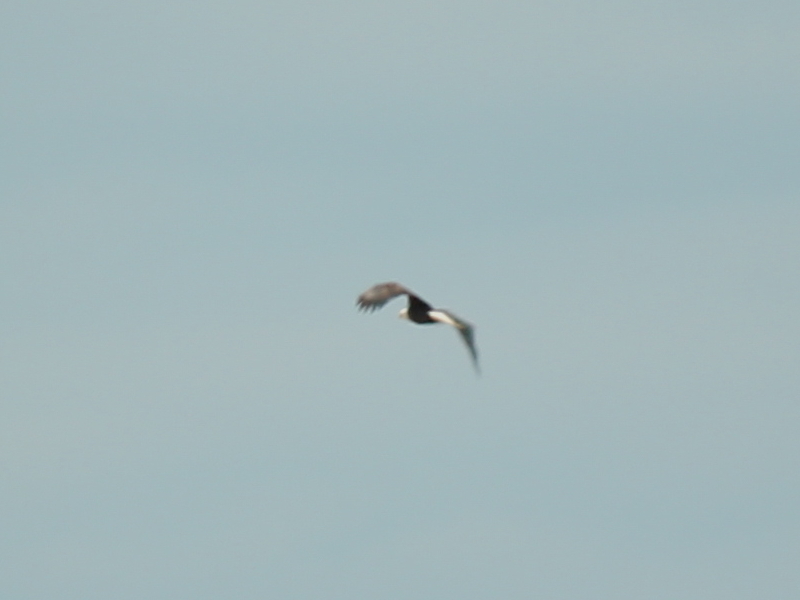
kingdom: Animalia
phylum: Chordata
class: Aves
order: Accipitriformes
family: Accipitridae
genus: Haliaeetus
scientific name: Haliaeetus leucocephalus
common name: Bald eagle
